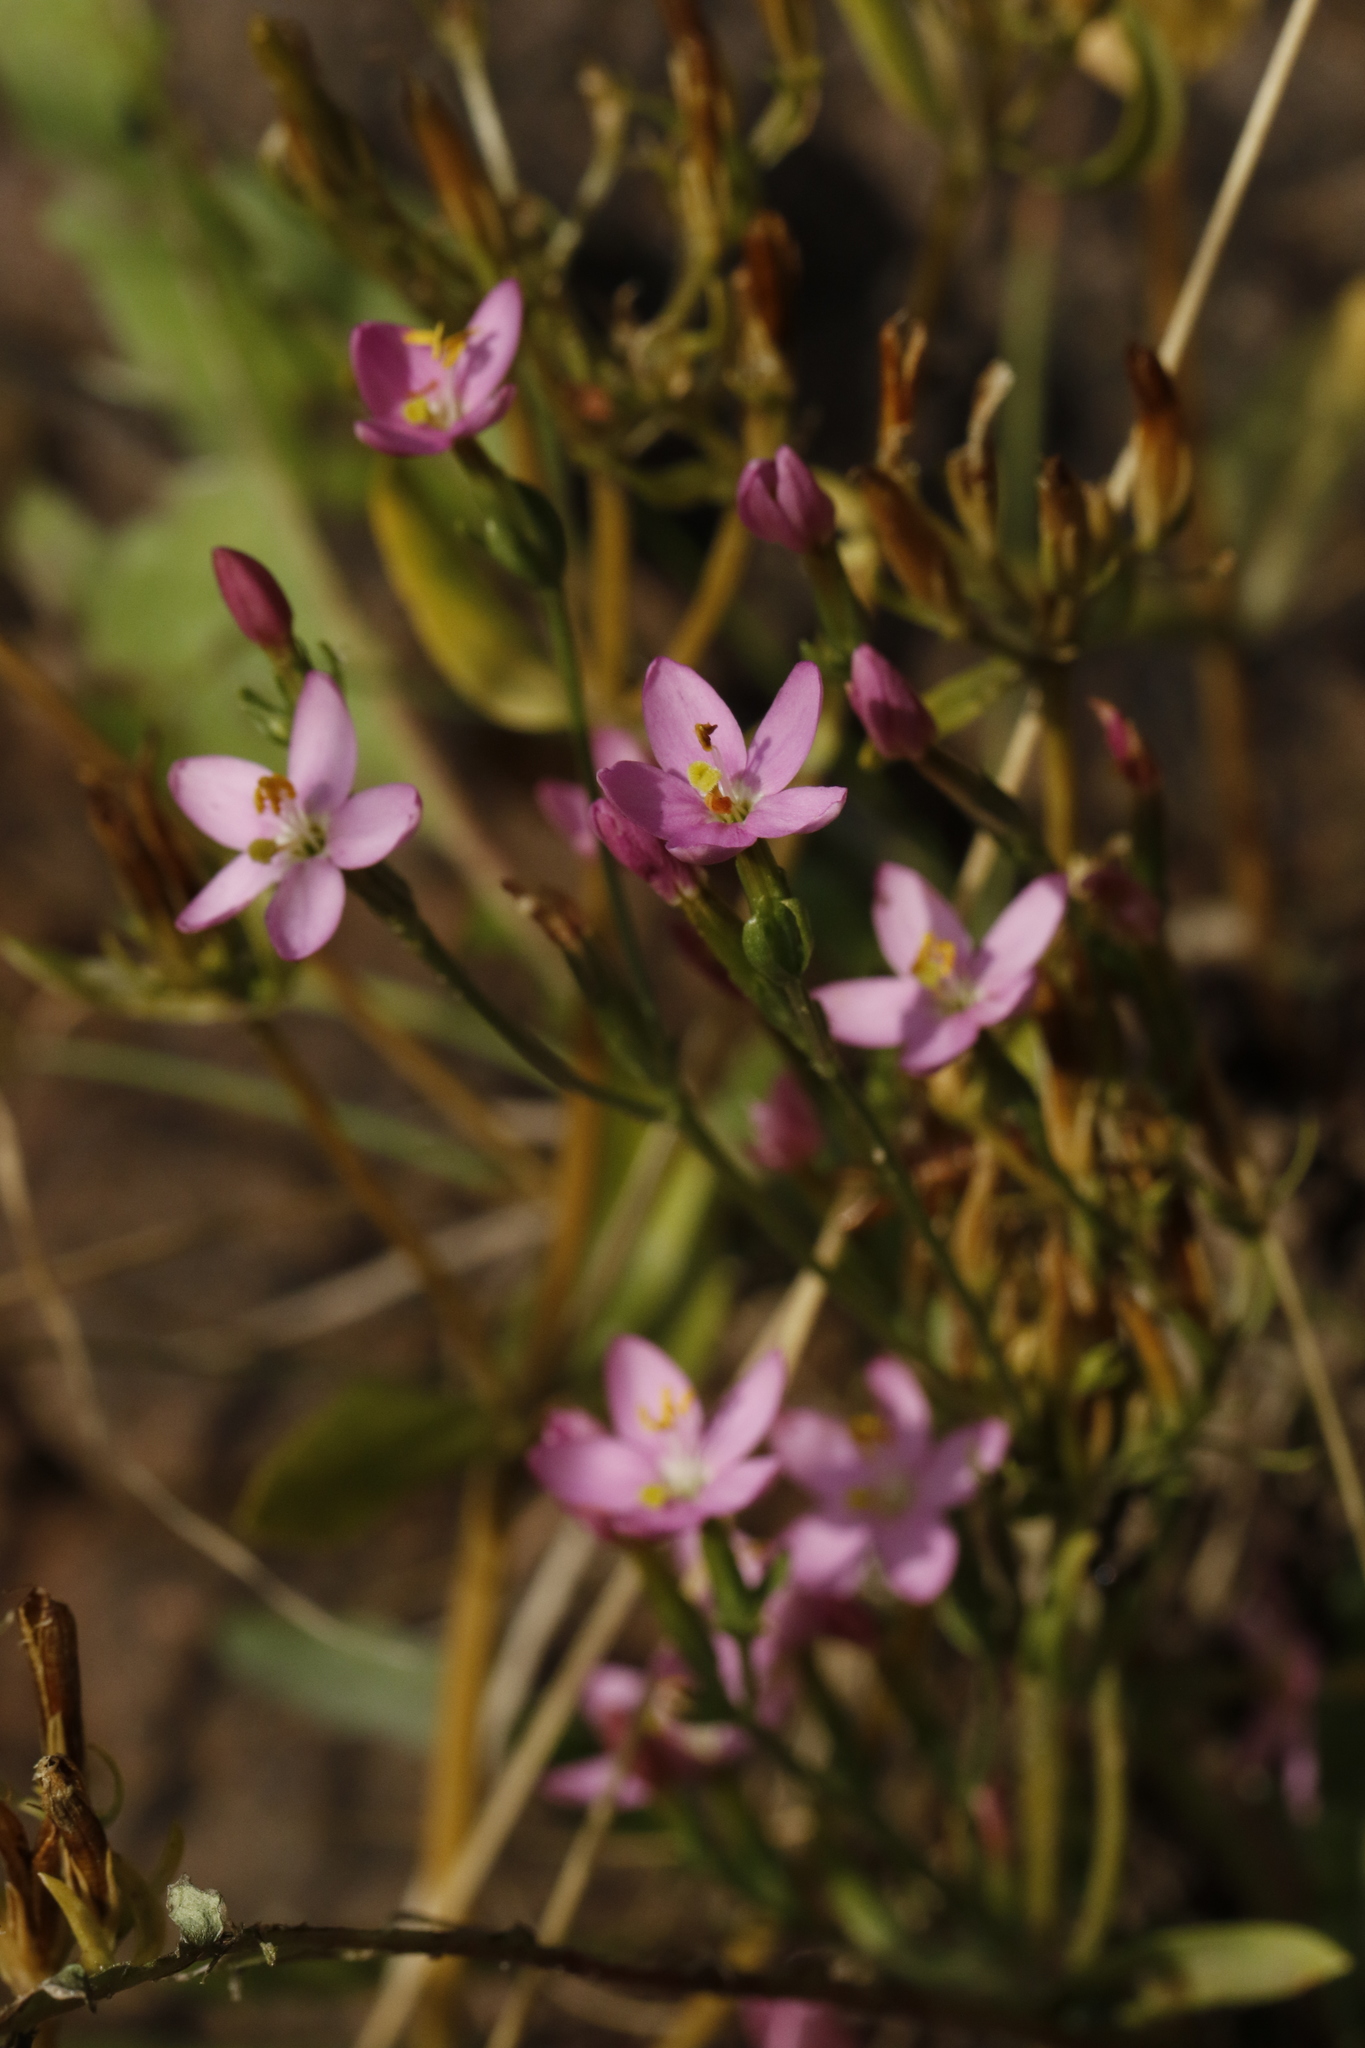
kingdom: Plantae
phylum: Tracheophyta
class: Magnoliopsida
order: Gentianales
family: Gentianaceae
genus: Centaurium
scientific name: Centaurium erythraea
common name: Common centaury
